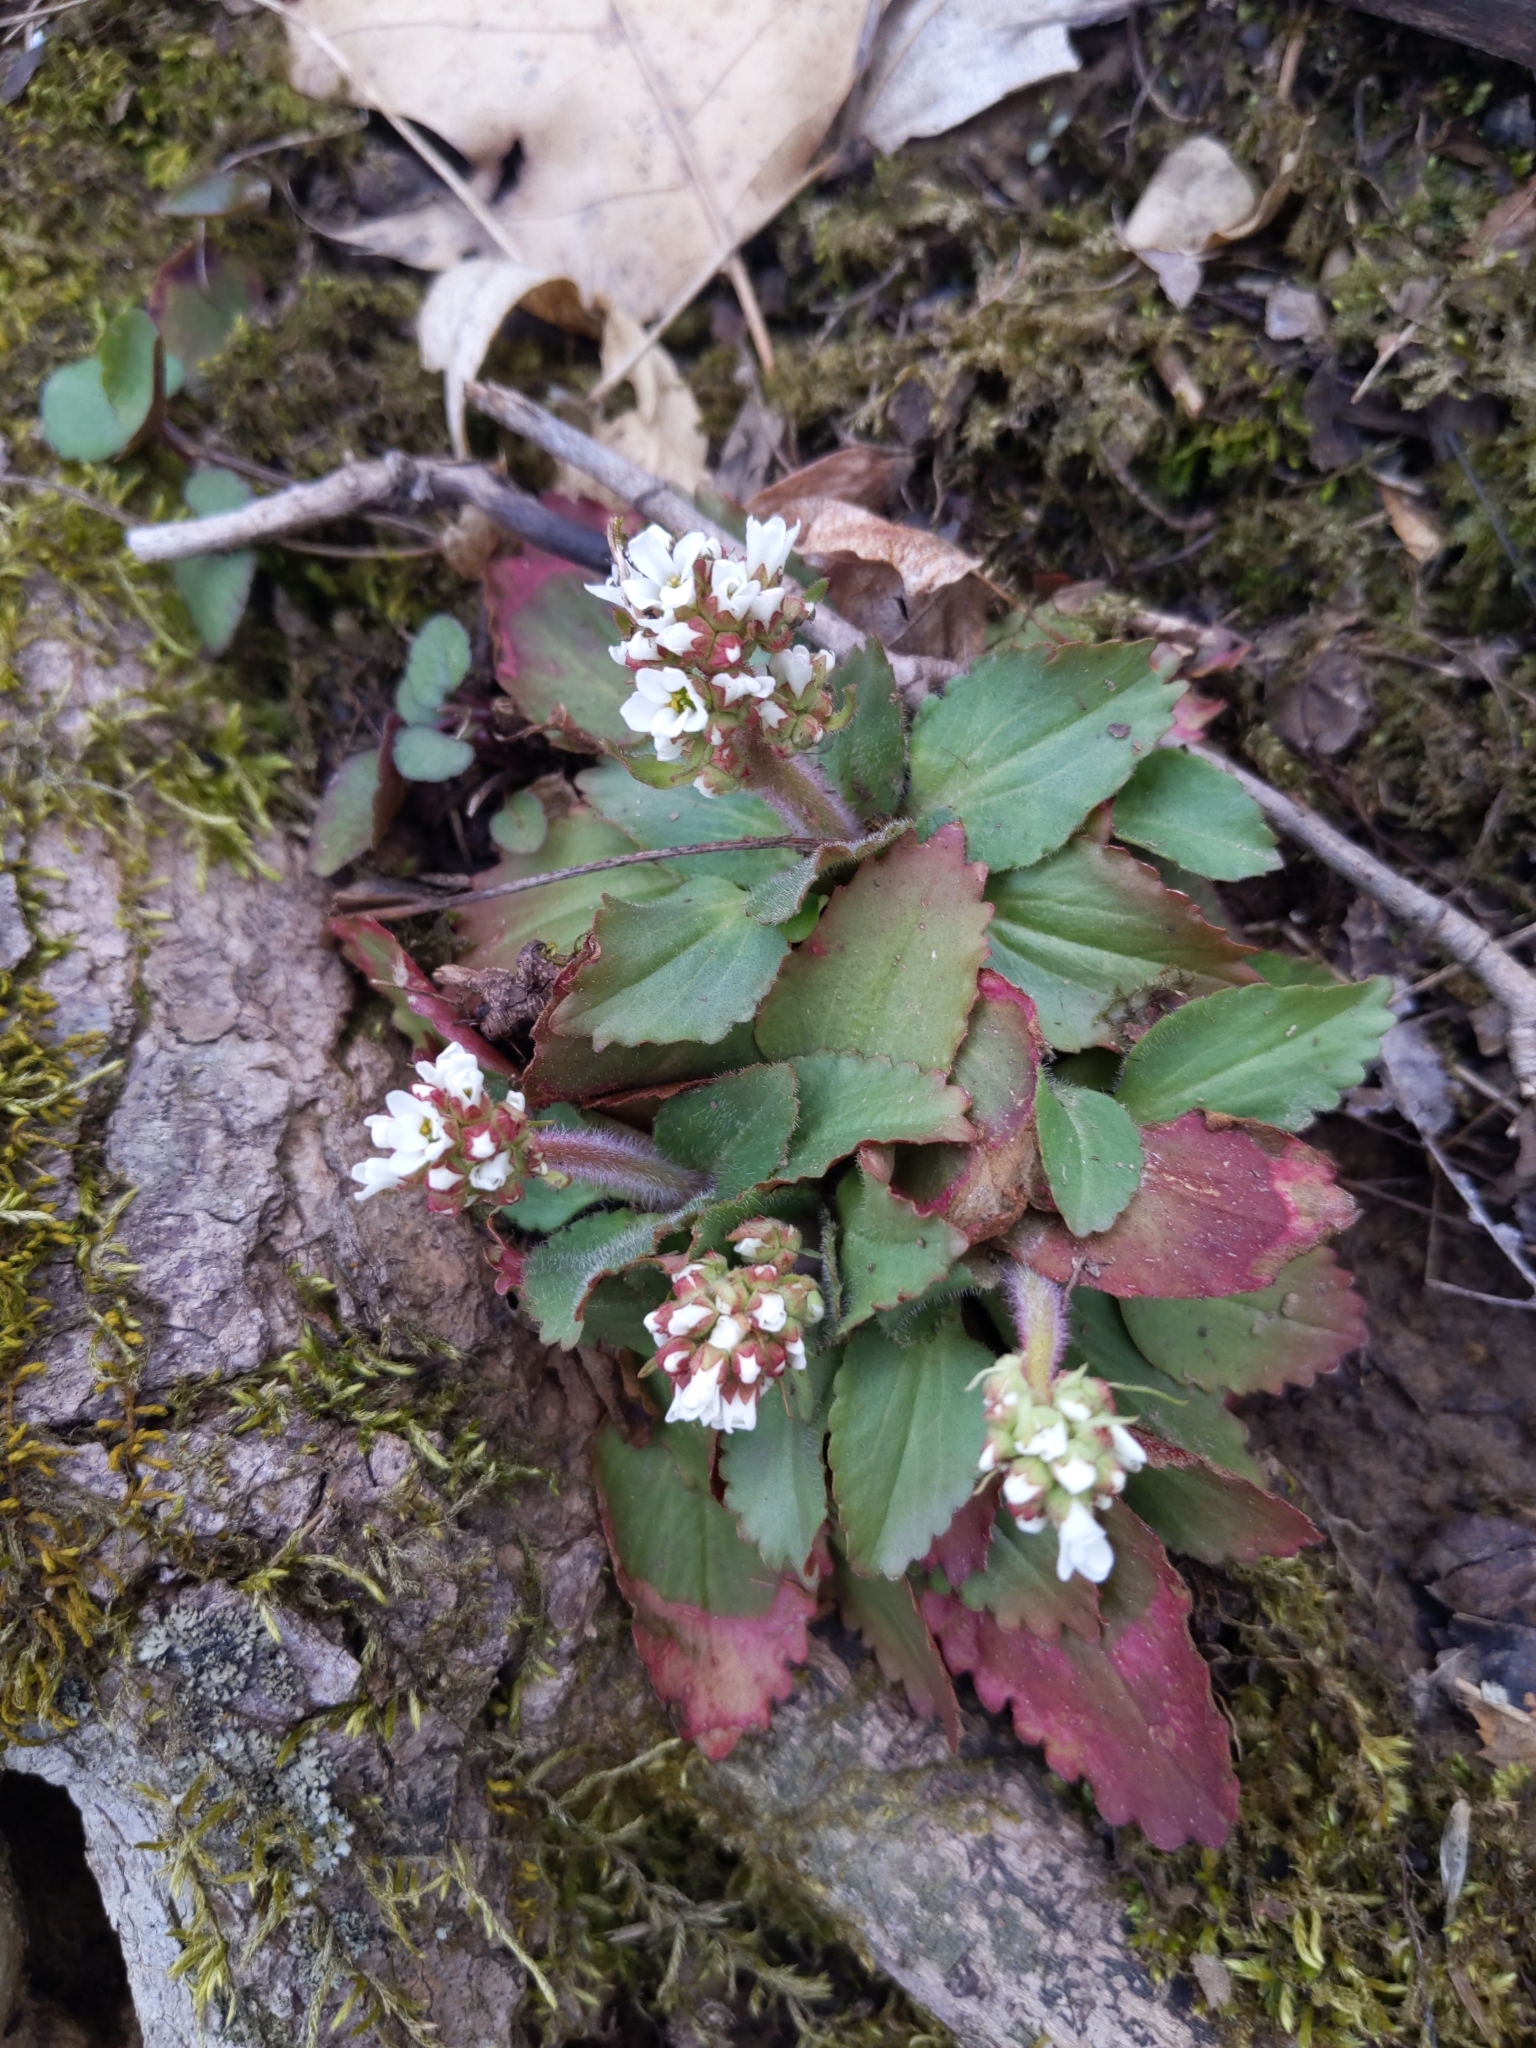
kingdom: Plantae
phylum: Tracheophyta
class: Magnoliopsida
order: Saxifragales
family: Saxifragaceae
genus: Micranthes
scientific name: Micranthes virginiensis
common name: Early saxifrage
